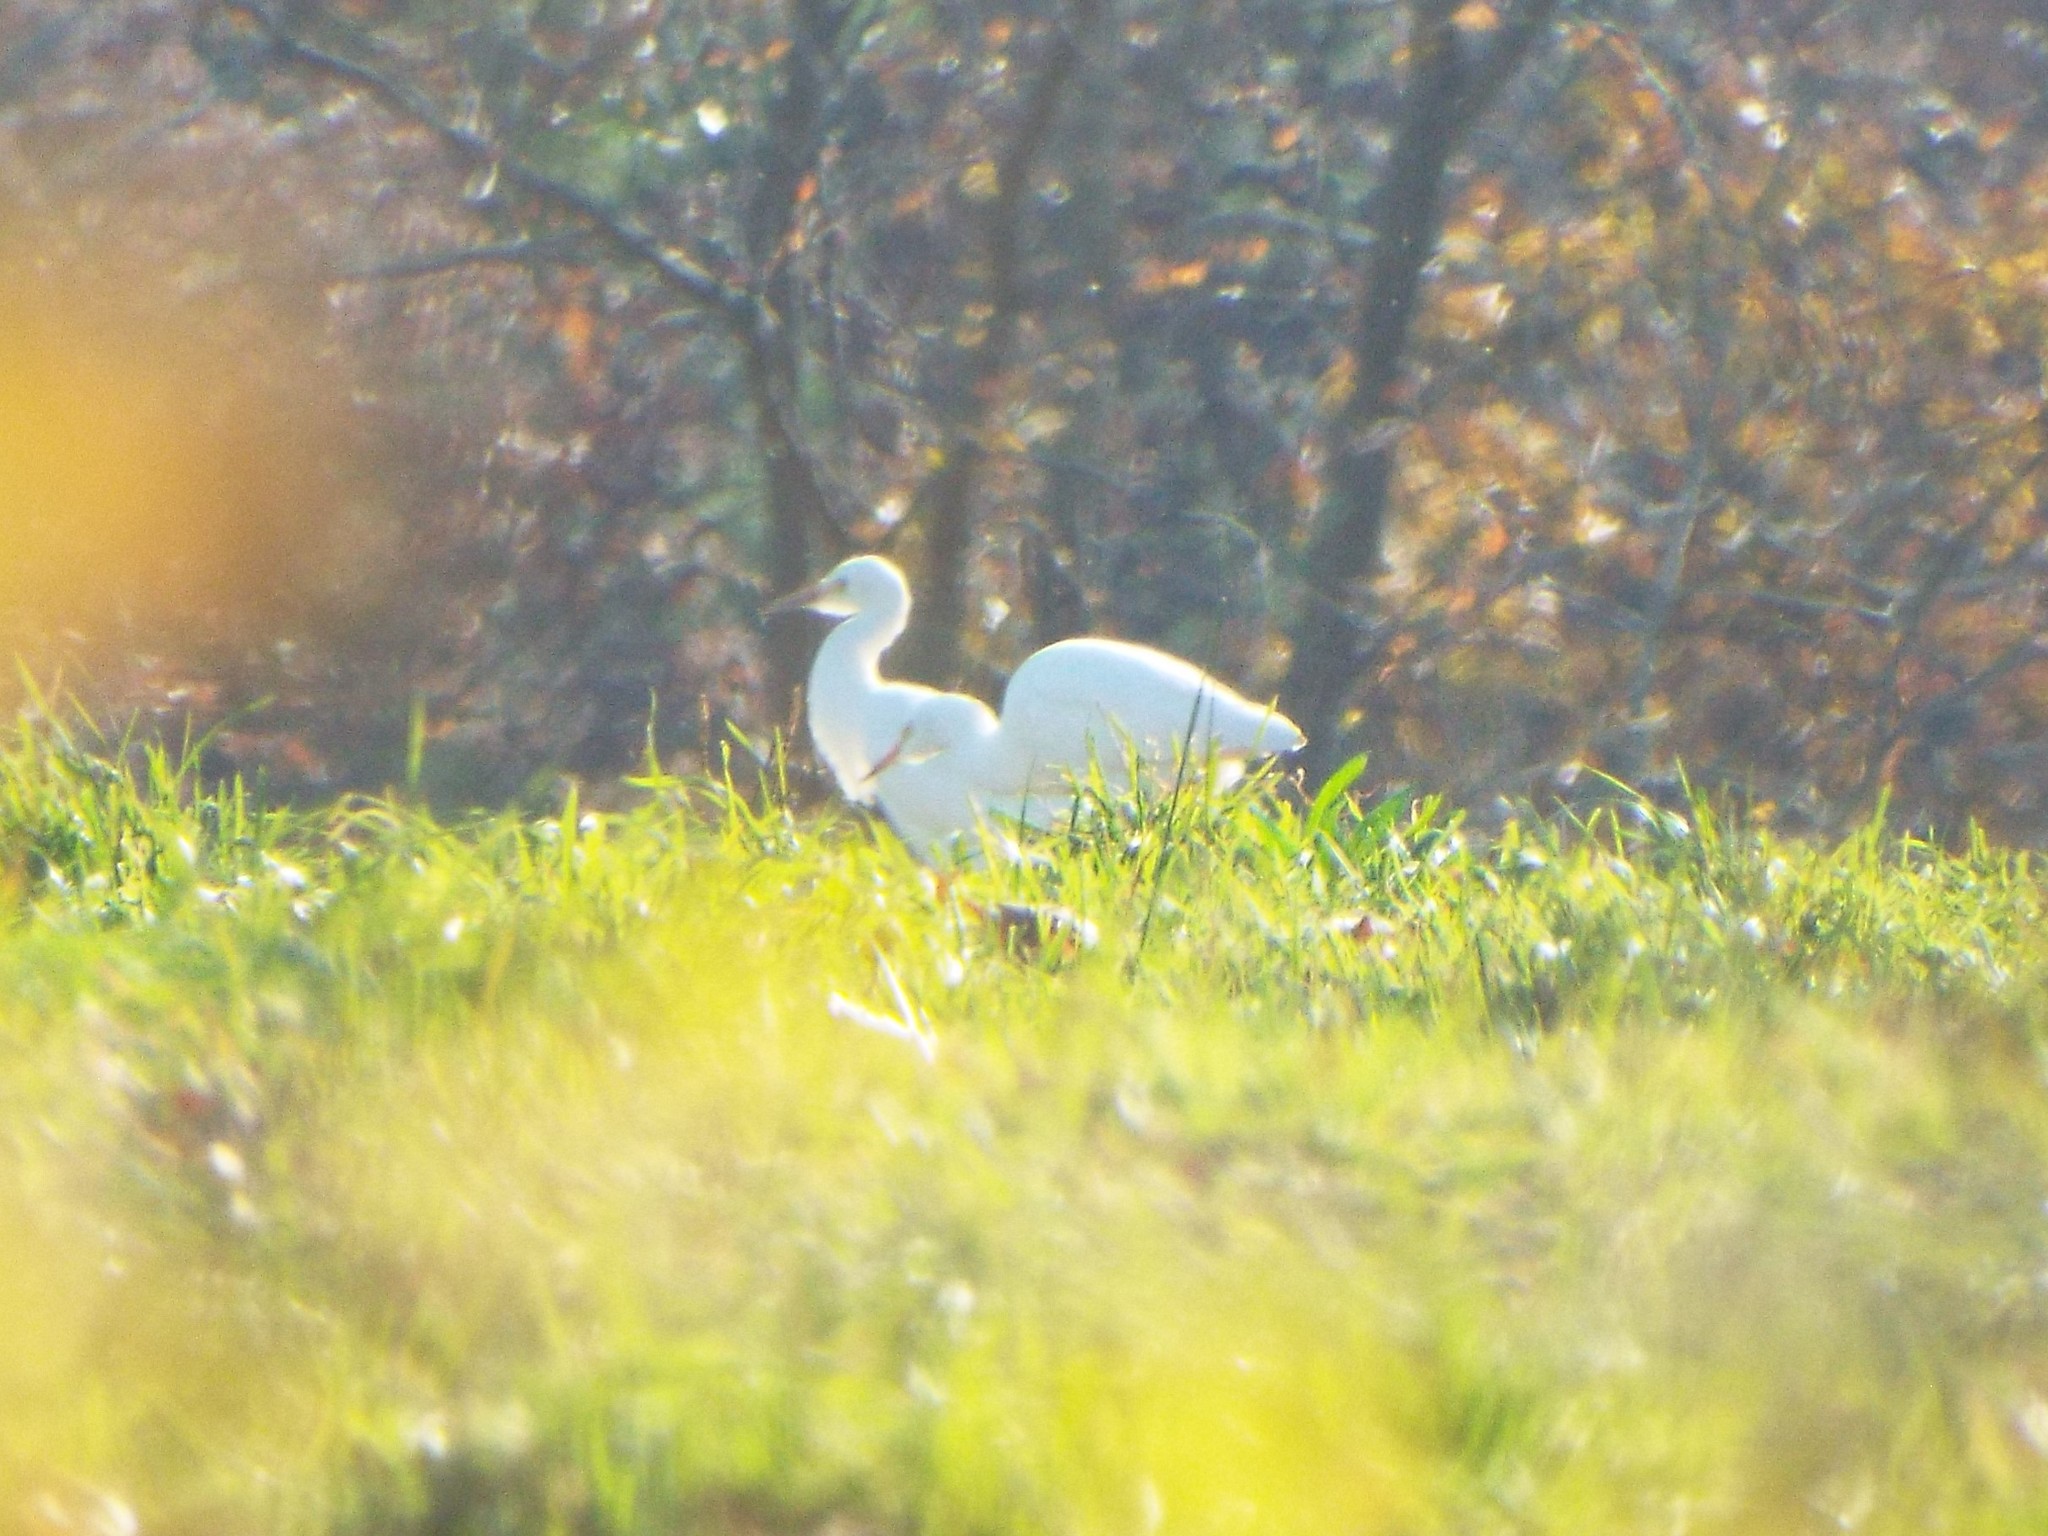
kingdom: Animalia
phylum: Chordata
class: Aves
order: Pelecaniformes
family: Ardeidae
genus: Bubulcus
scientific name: Bubulcus ibis
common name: Cattle egret
